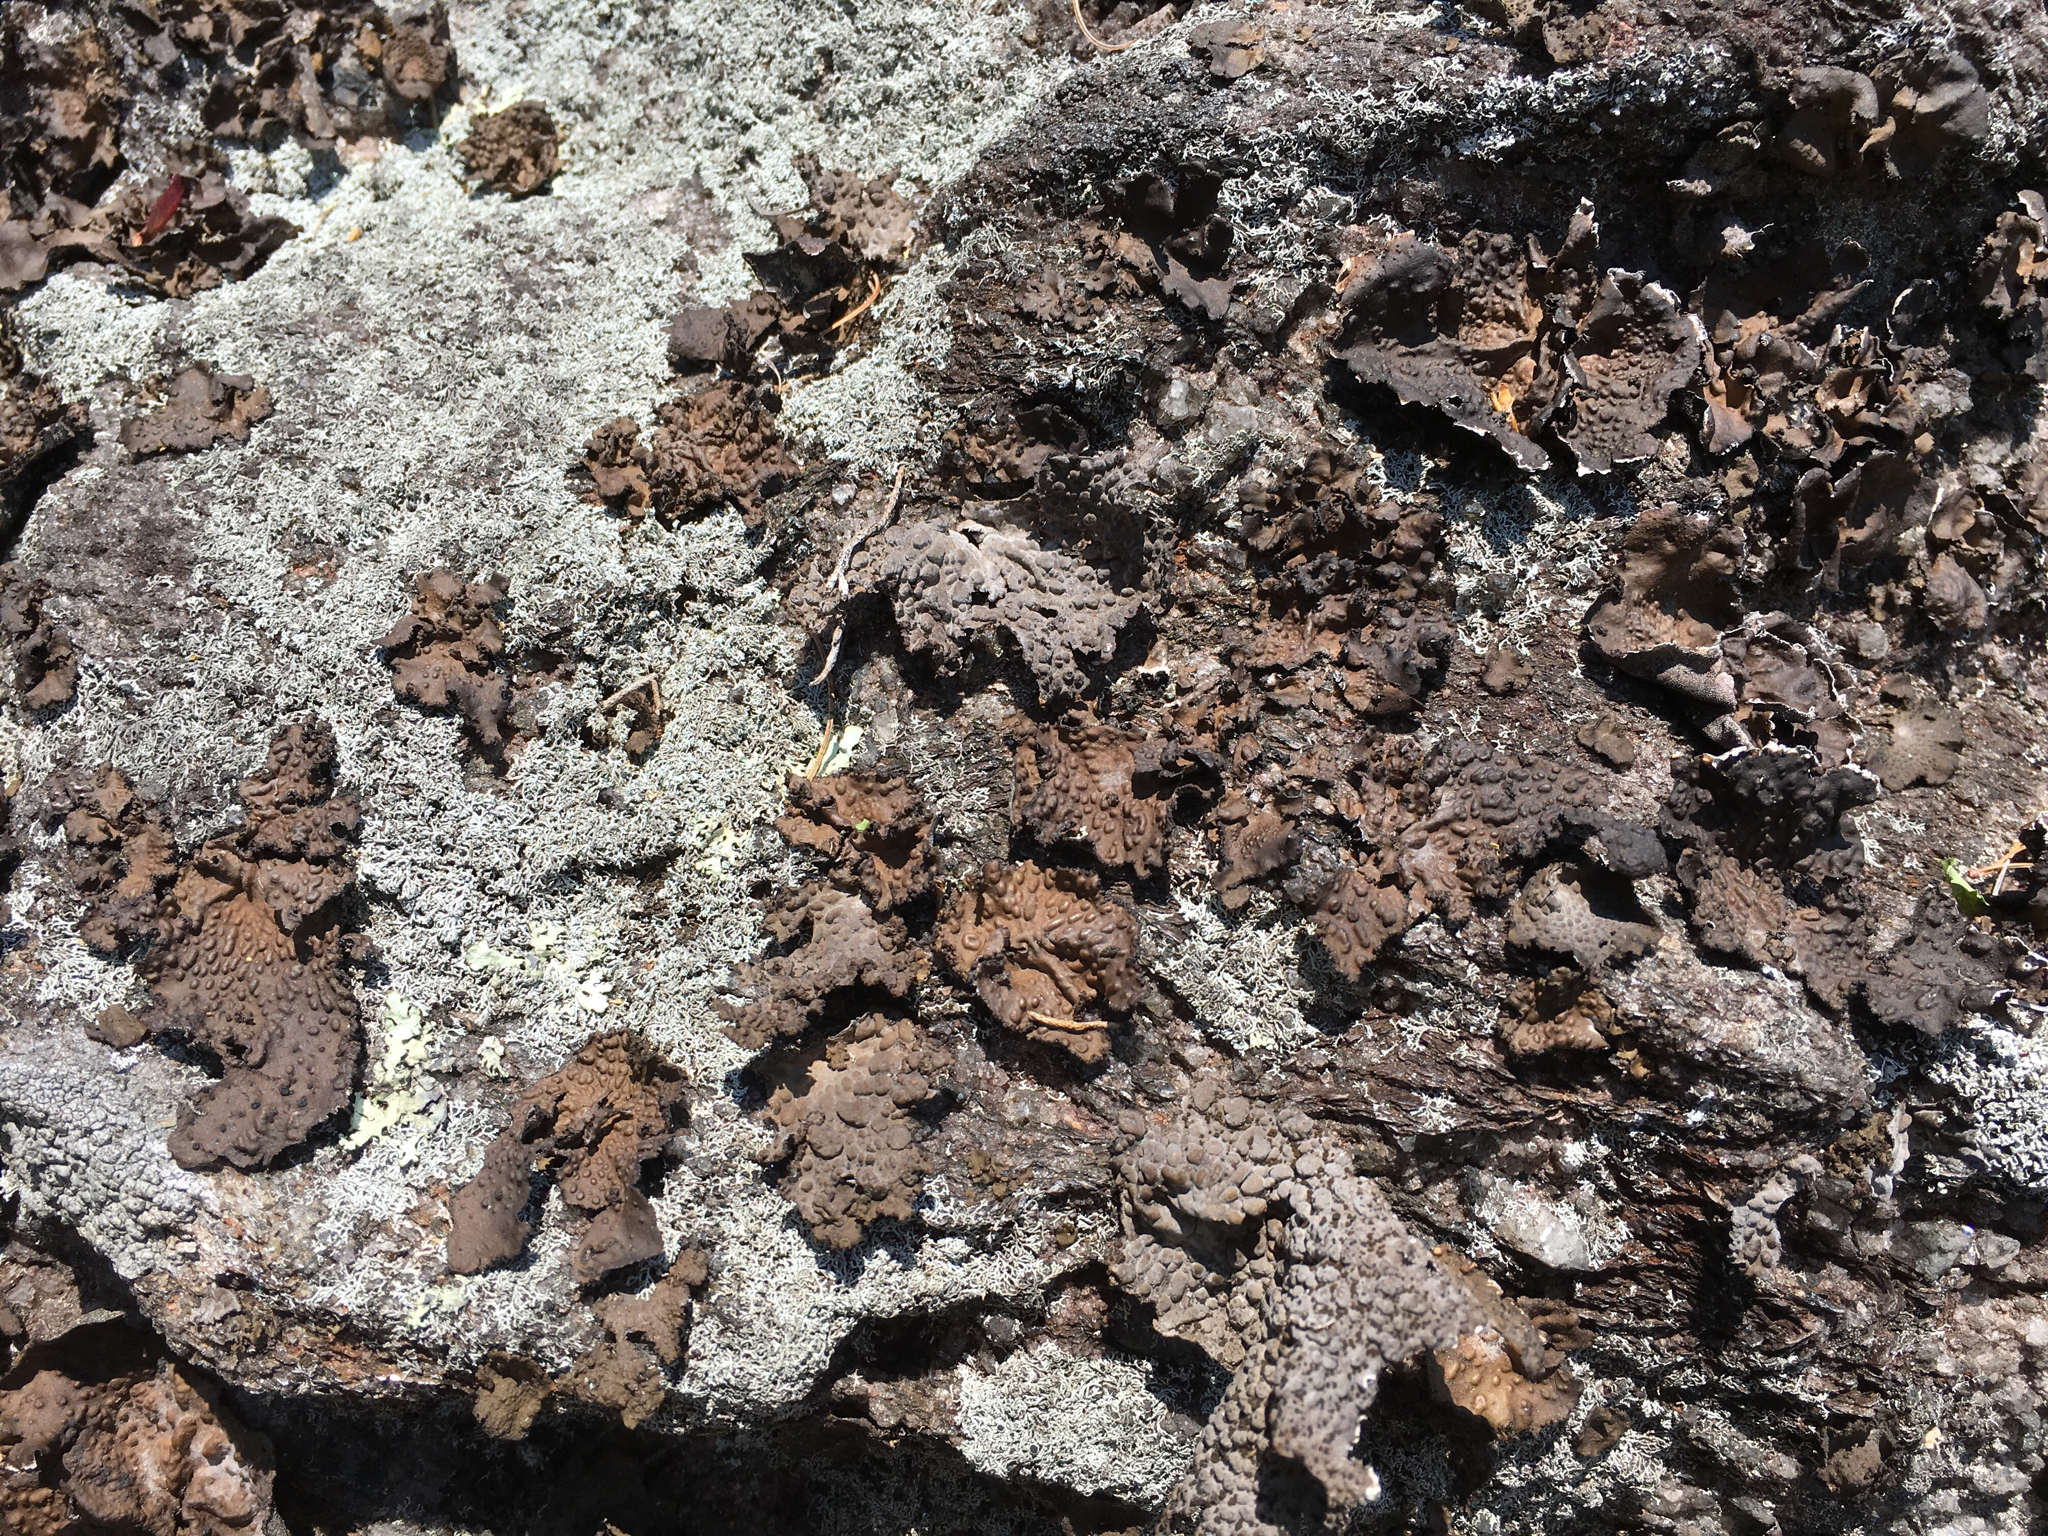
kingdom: Fungi
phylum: Ascomycota
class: Lecanoromycetes
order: Umbilicariales
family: Umbilicariaceae
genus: Lasallia
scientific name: Lasallia pensylvanica
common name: Blackened toadskin lichen
